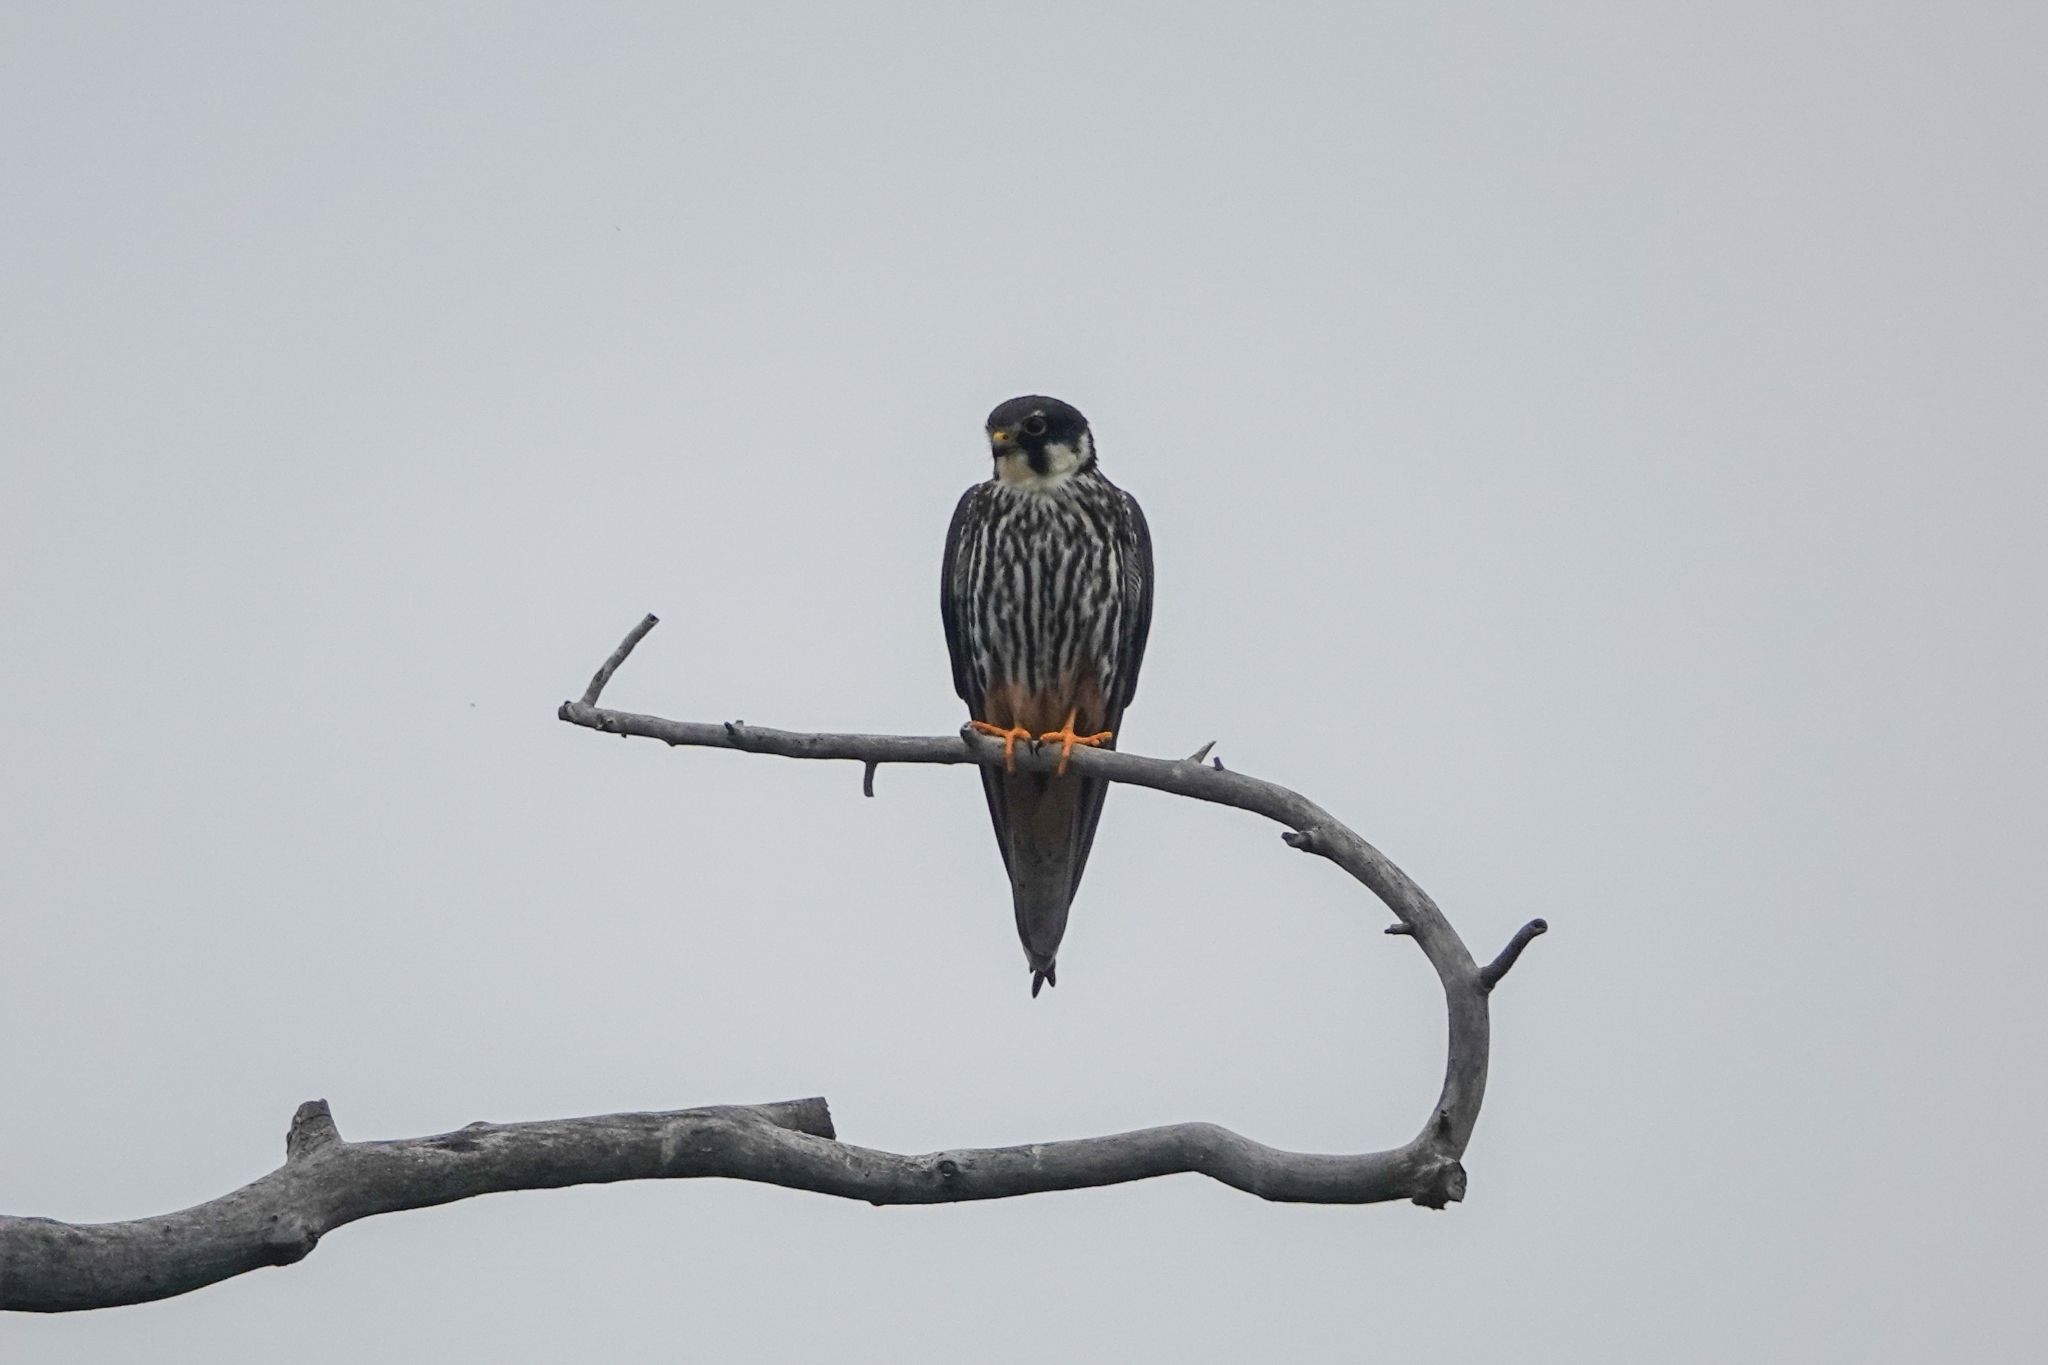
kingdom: Animalia
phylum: Chordata
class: Aves
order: Falconiformes
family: Falconidae
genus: Falco
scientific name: Falco subbuteo
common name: Eurasian hobby
